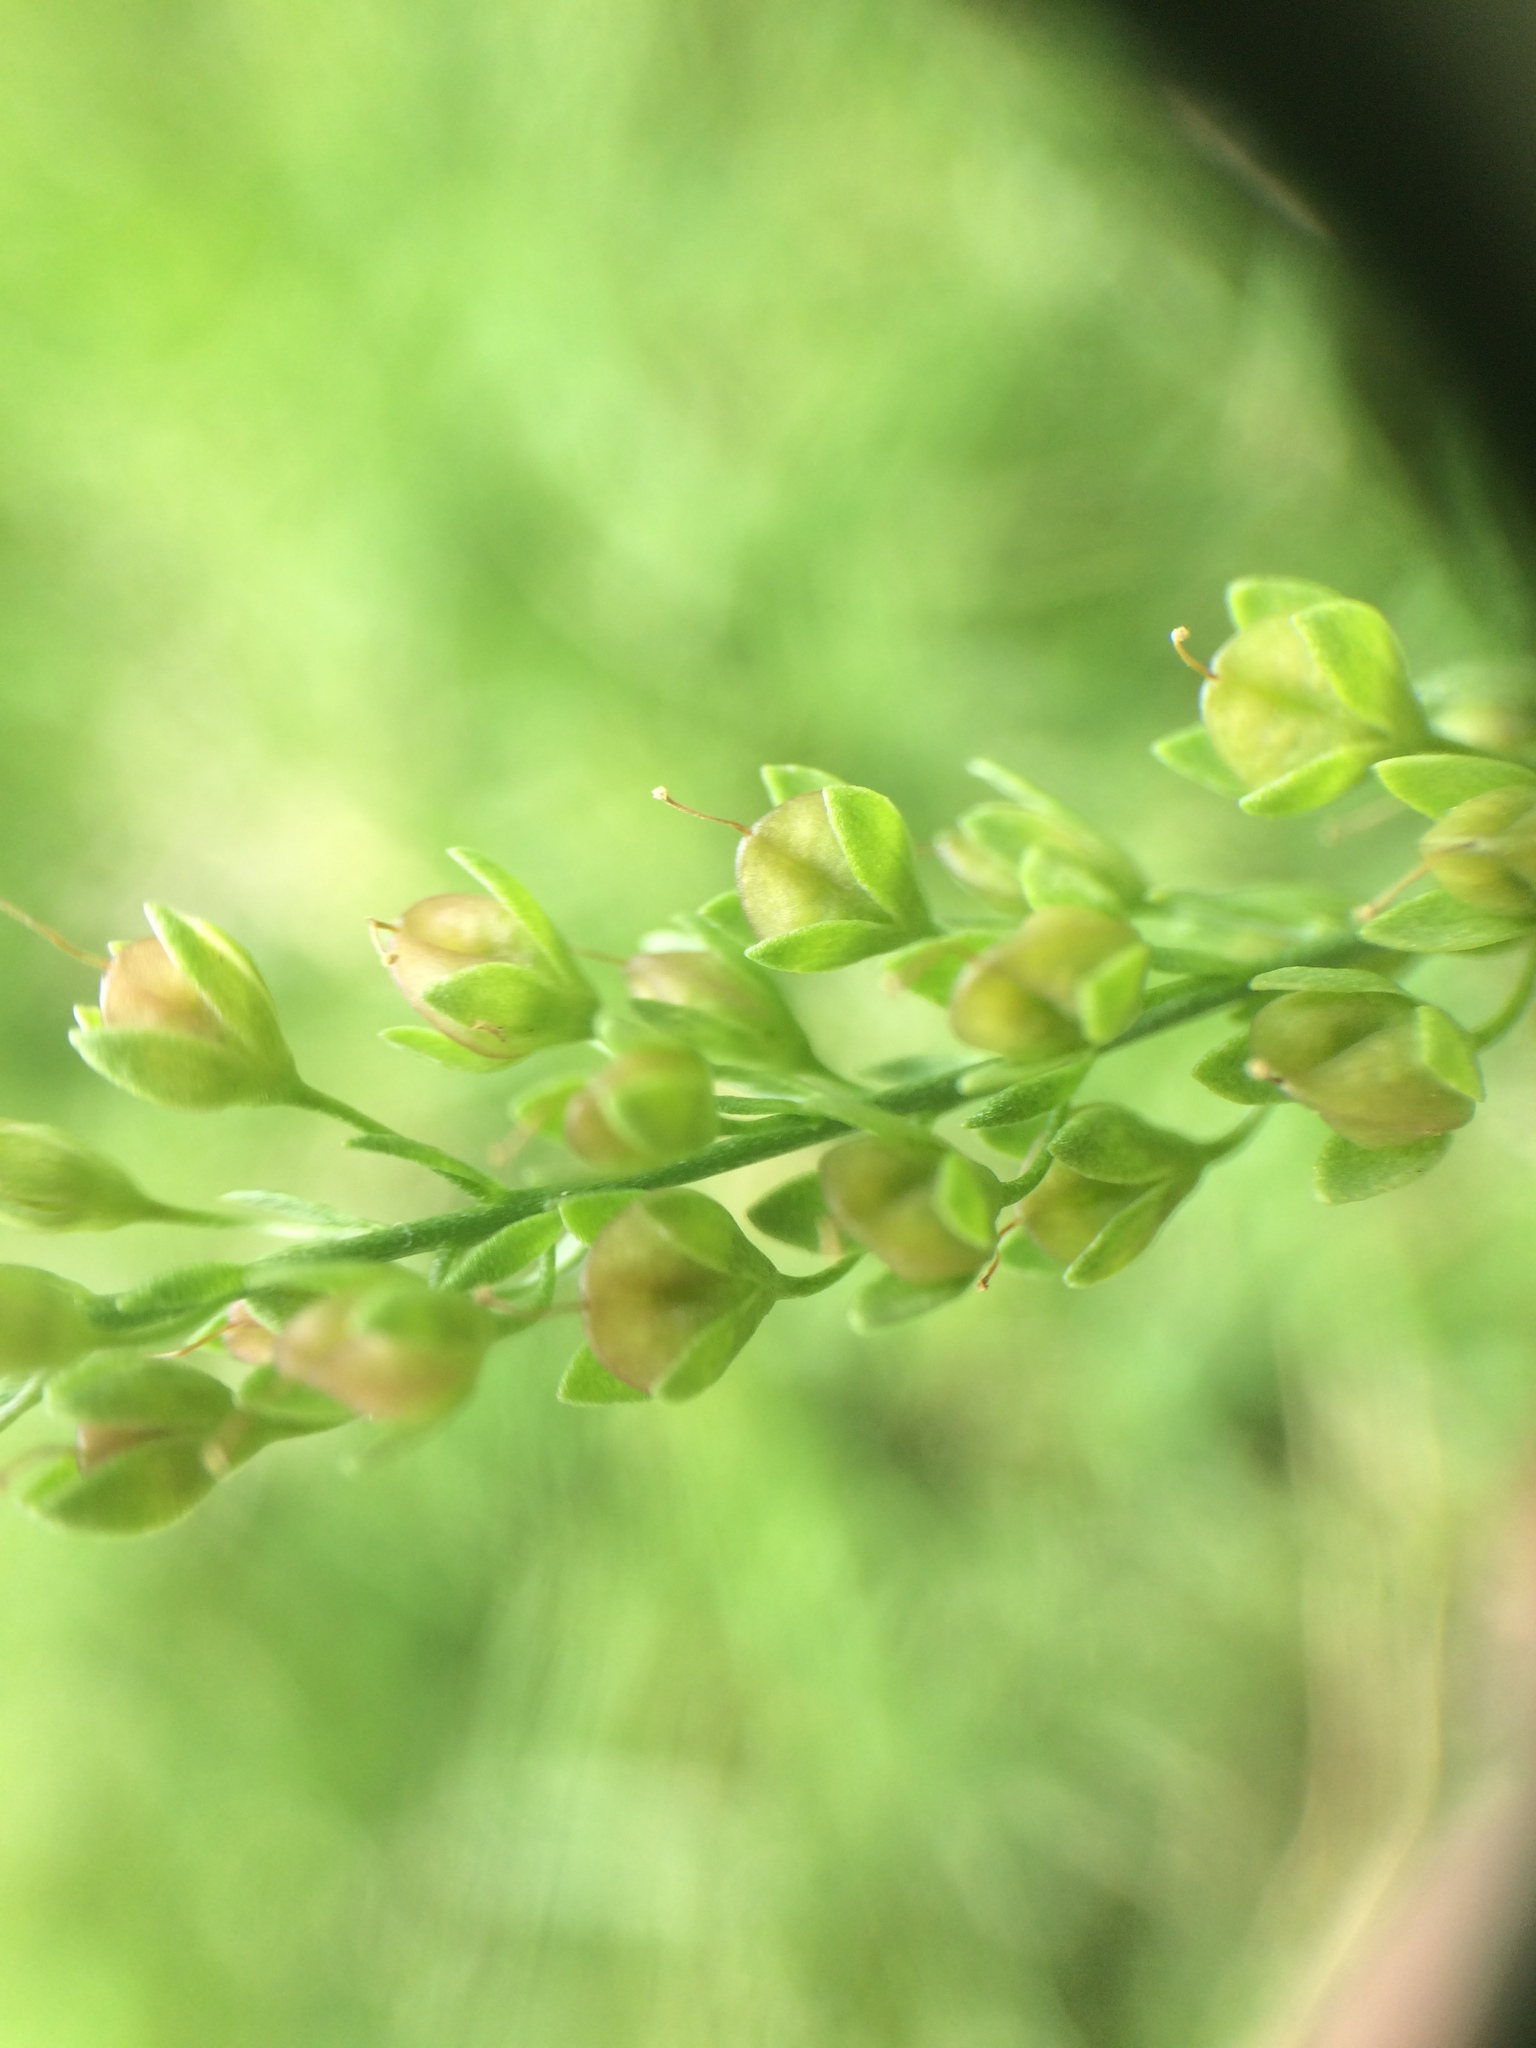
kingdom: Plantae
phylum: Tracheophyta
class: Magnoliopsida
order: Lamiales
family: Plantaginaceae
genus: Veronica
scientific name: Veronica anagallis-aquatica
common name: Water speedwell
